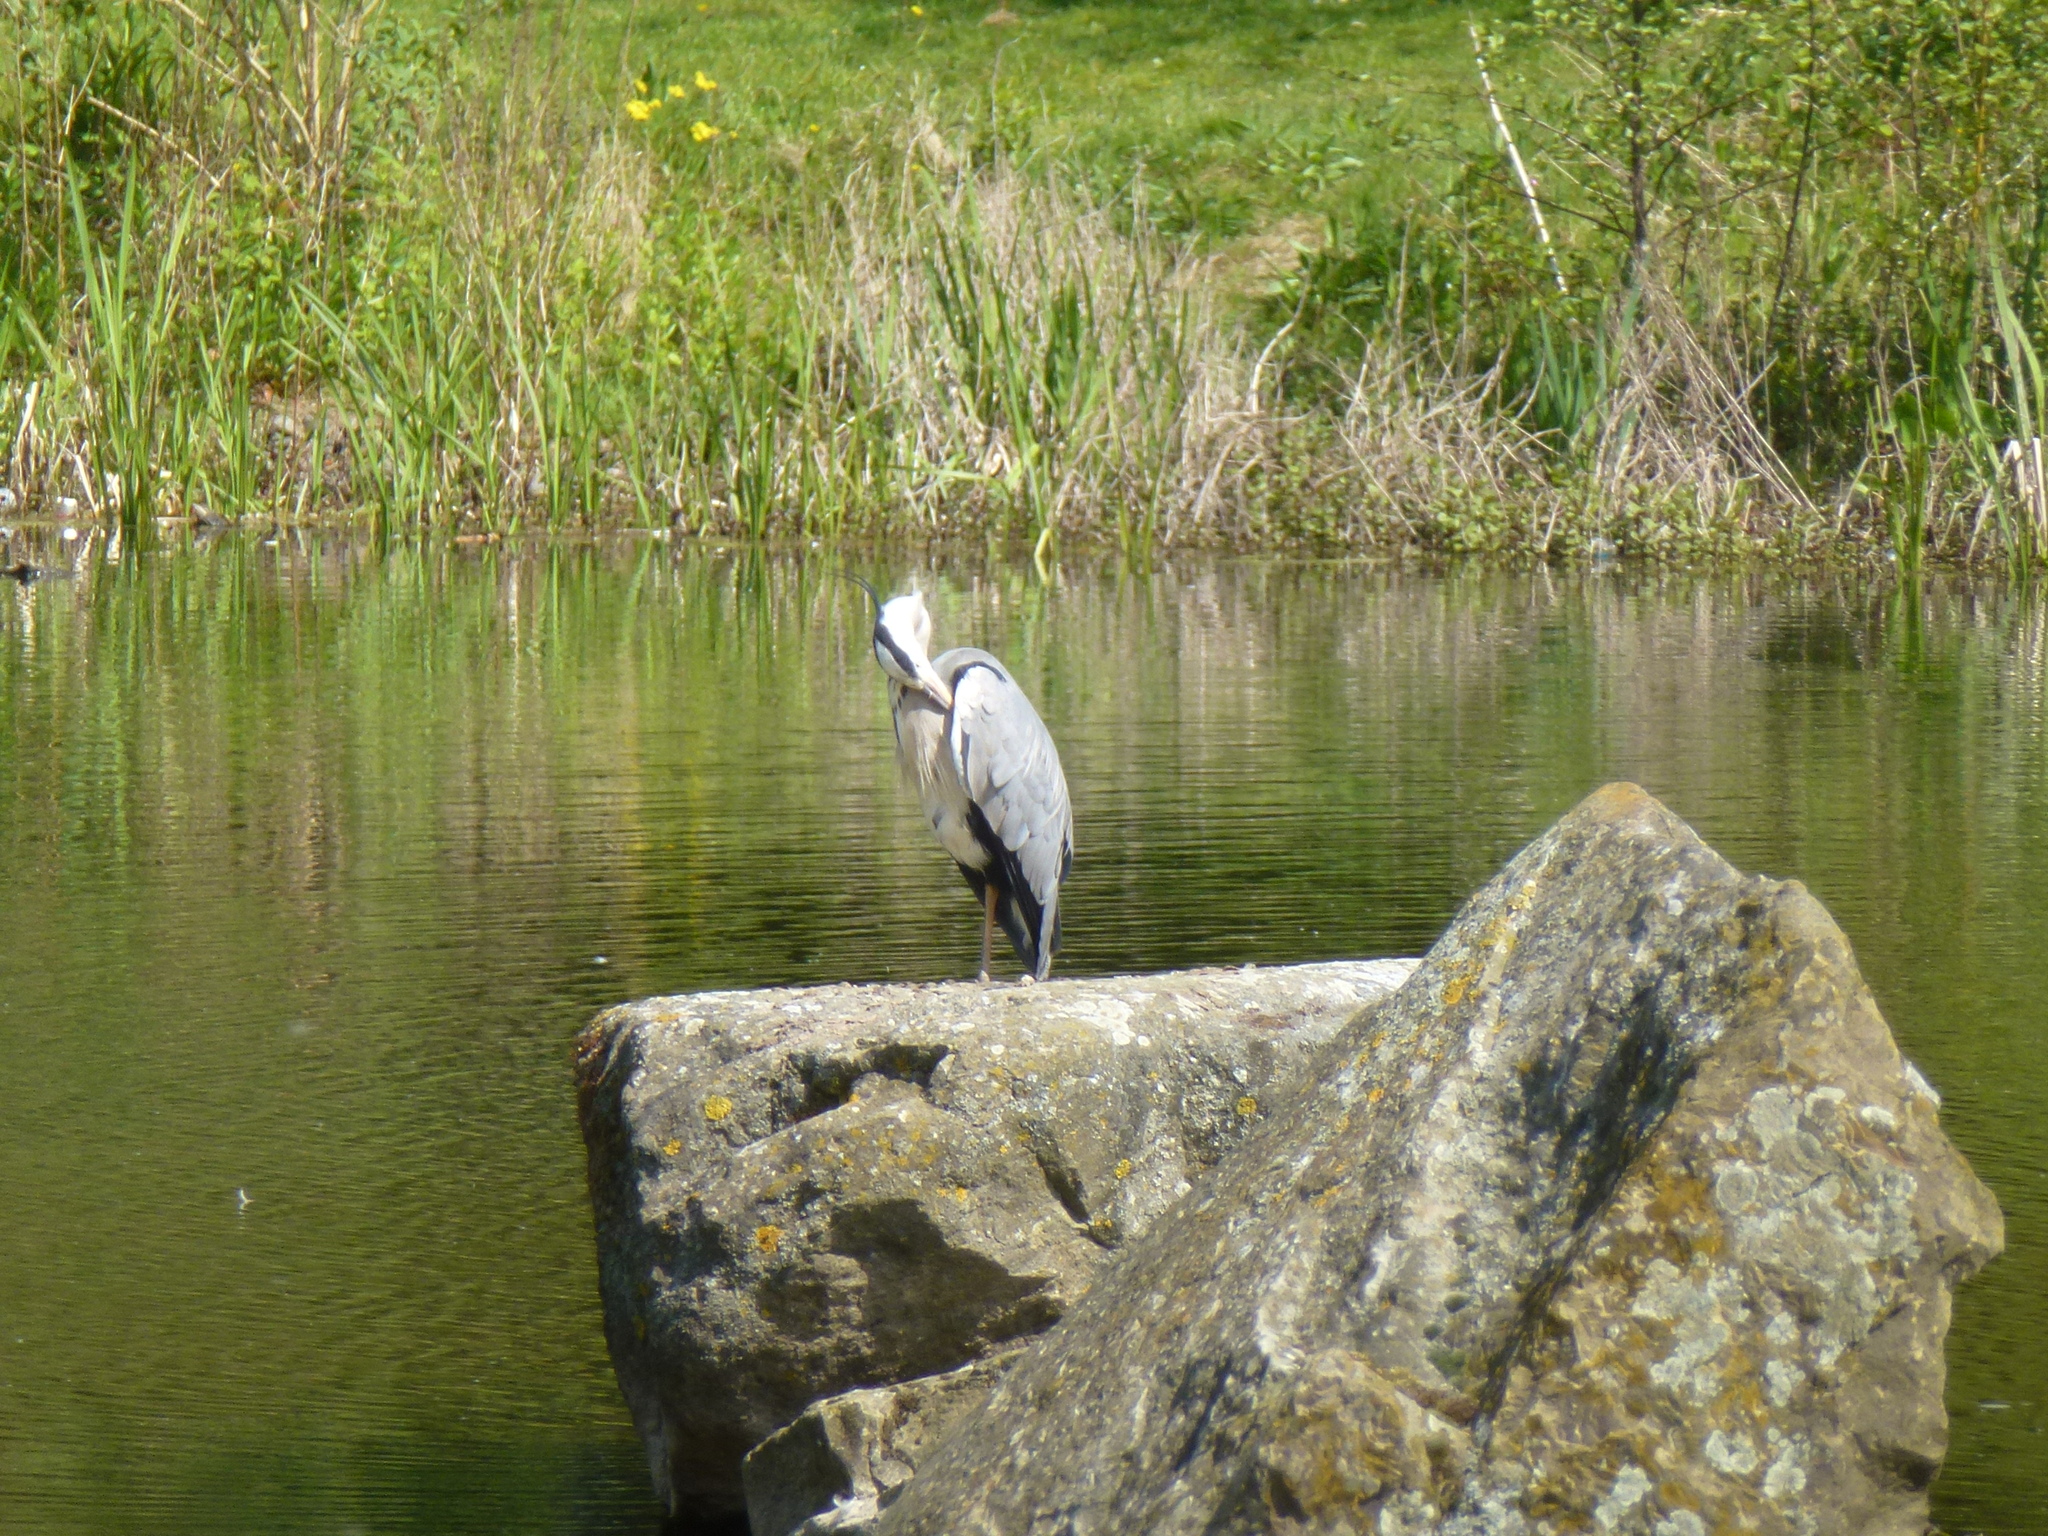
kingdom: Animalia
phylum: Chordata
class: Aves
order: Pelecaniformes
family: Ardeidae
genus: Ardea
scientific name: Ardea cinerea
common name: Grey heron
